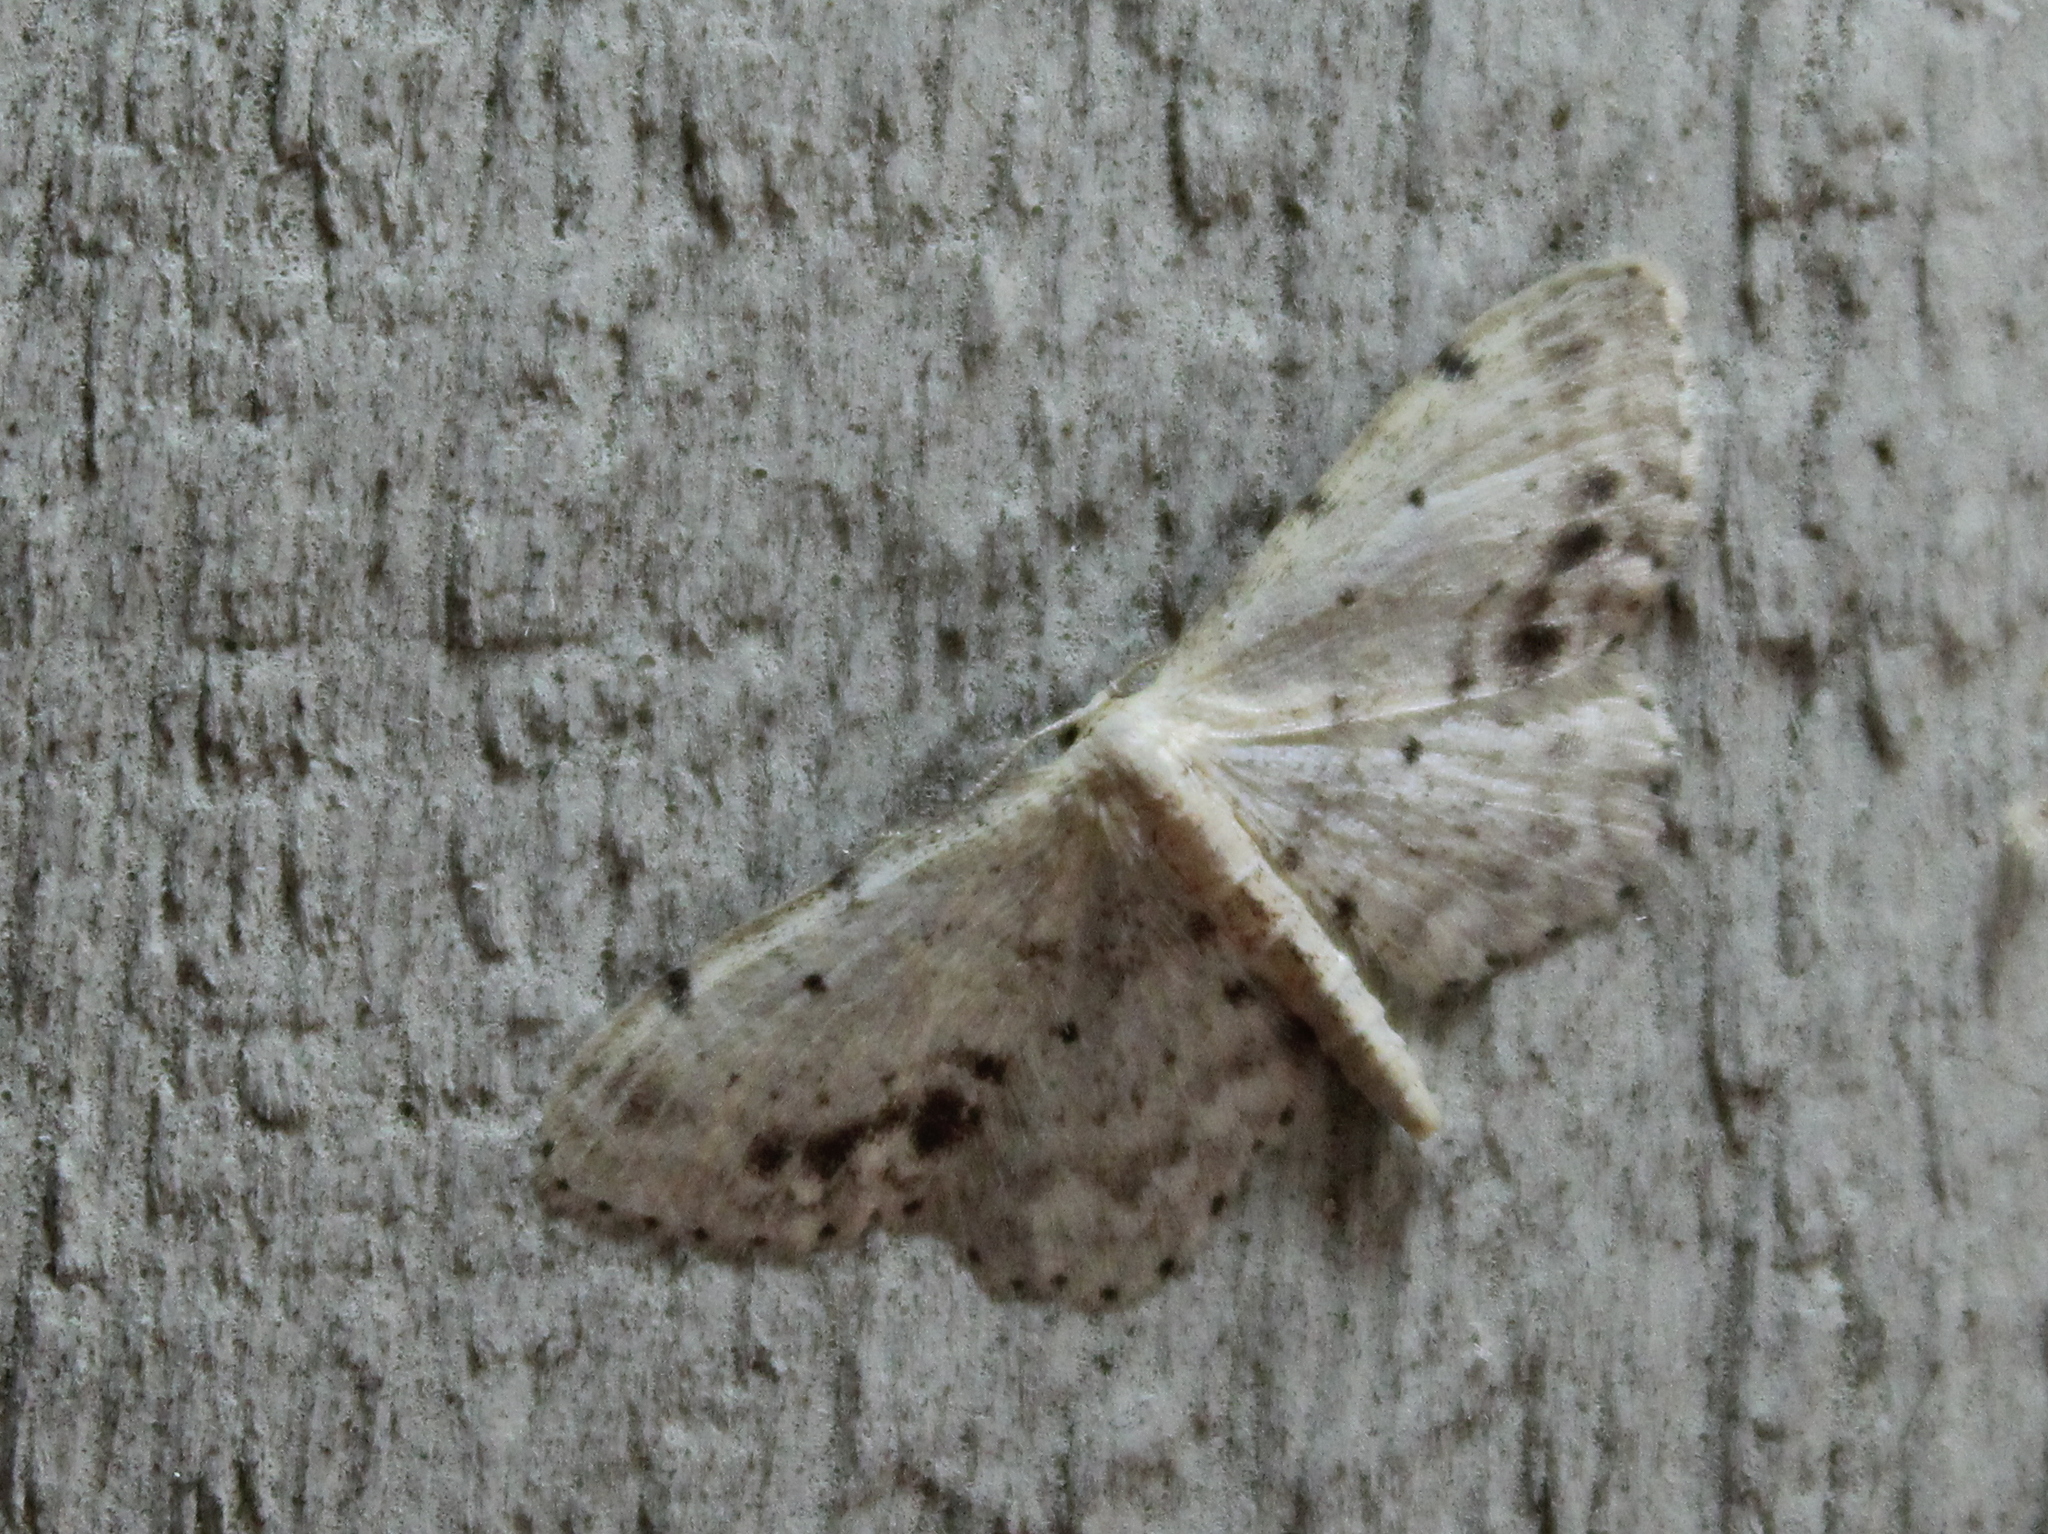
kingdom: Animalia
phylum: Arthropoda
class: Insecta
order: Lepidoptera
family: Geometridae
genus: Idaea
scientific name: Idaea dimidiata
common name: Single-dotted wave
